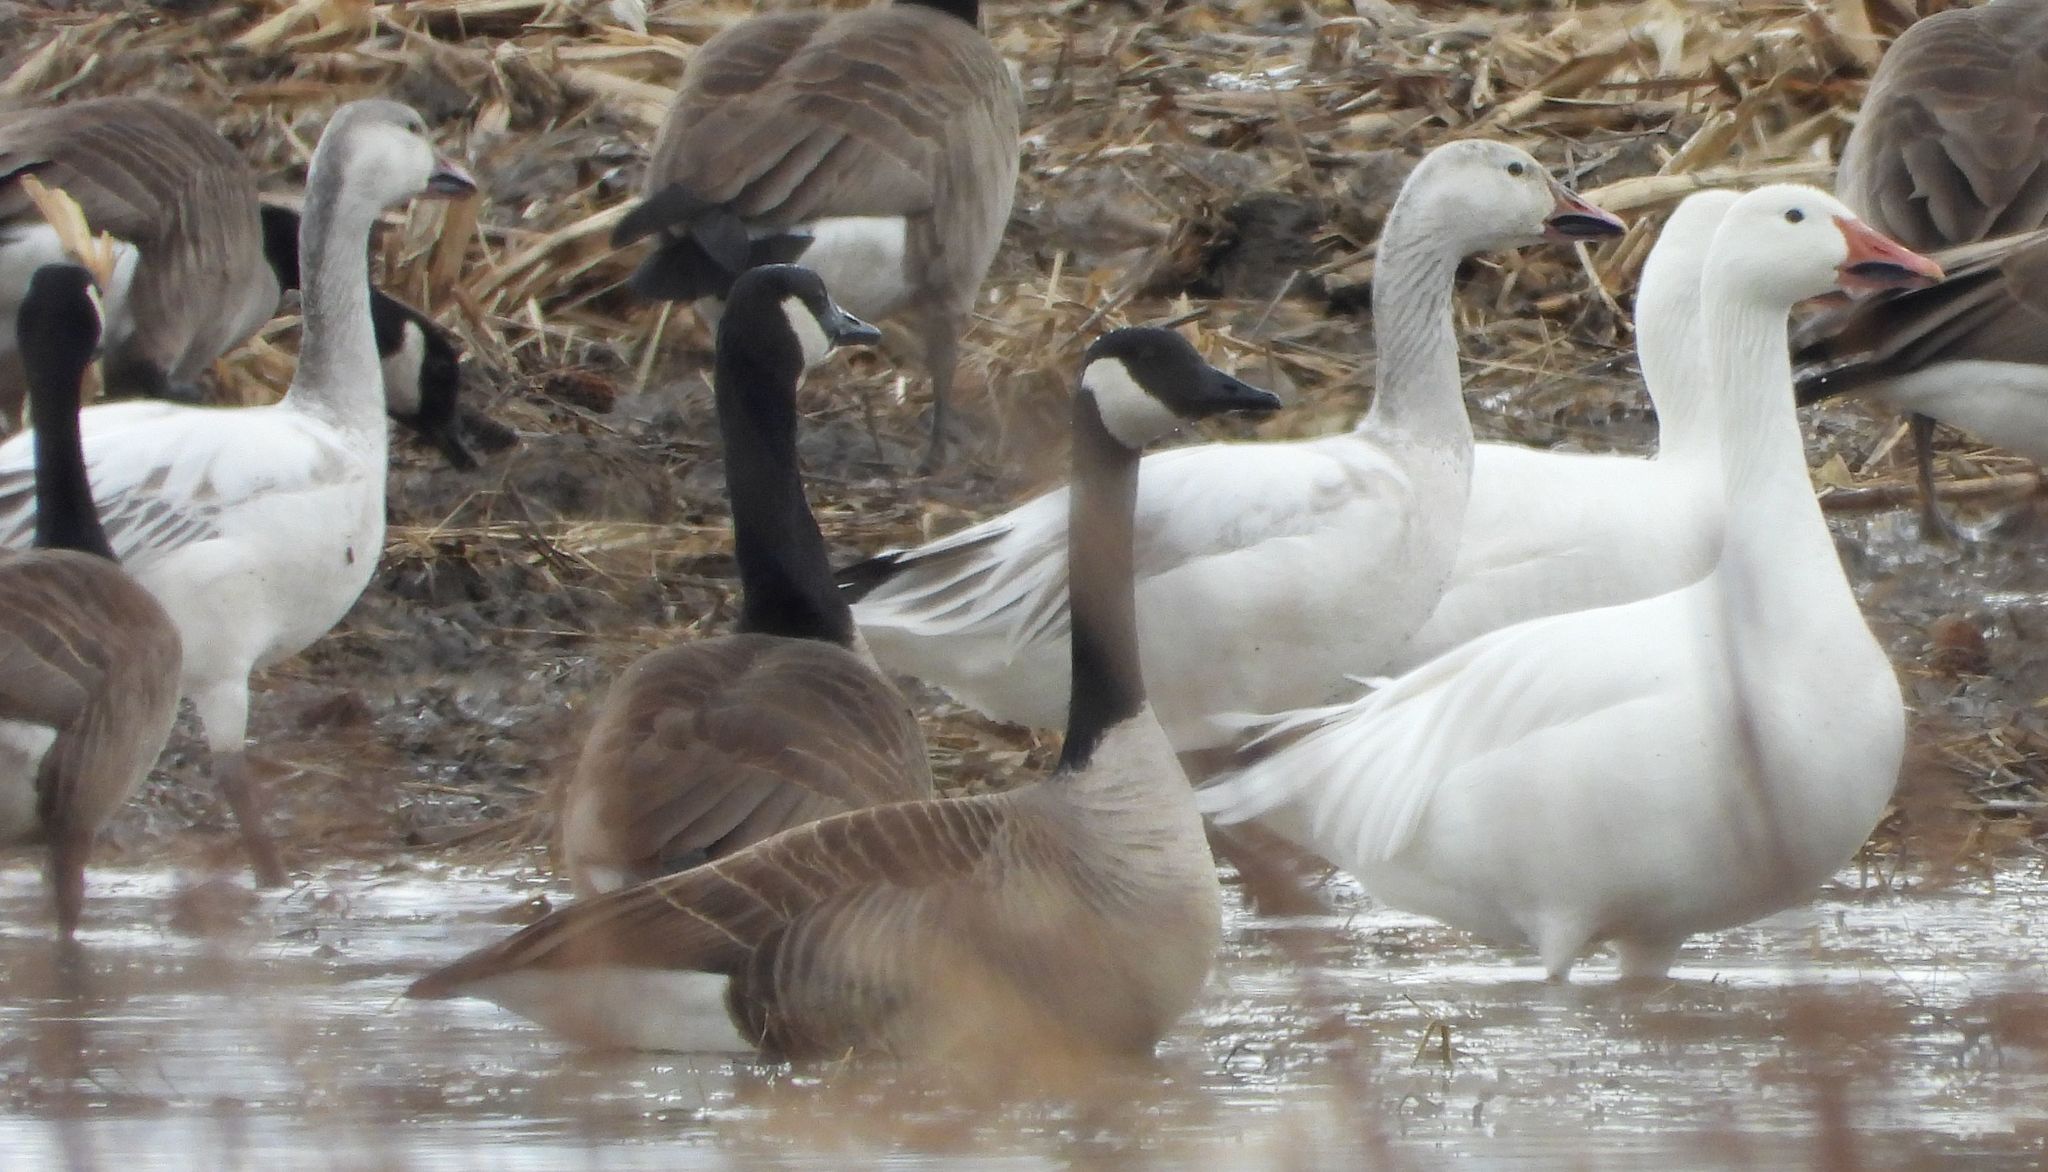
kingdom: Animalia
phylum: Chordata
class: Aves
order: Anseriformes
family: Anatidae
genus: Anser
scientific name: Anser caerulescens
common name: Snow goose
